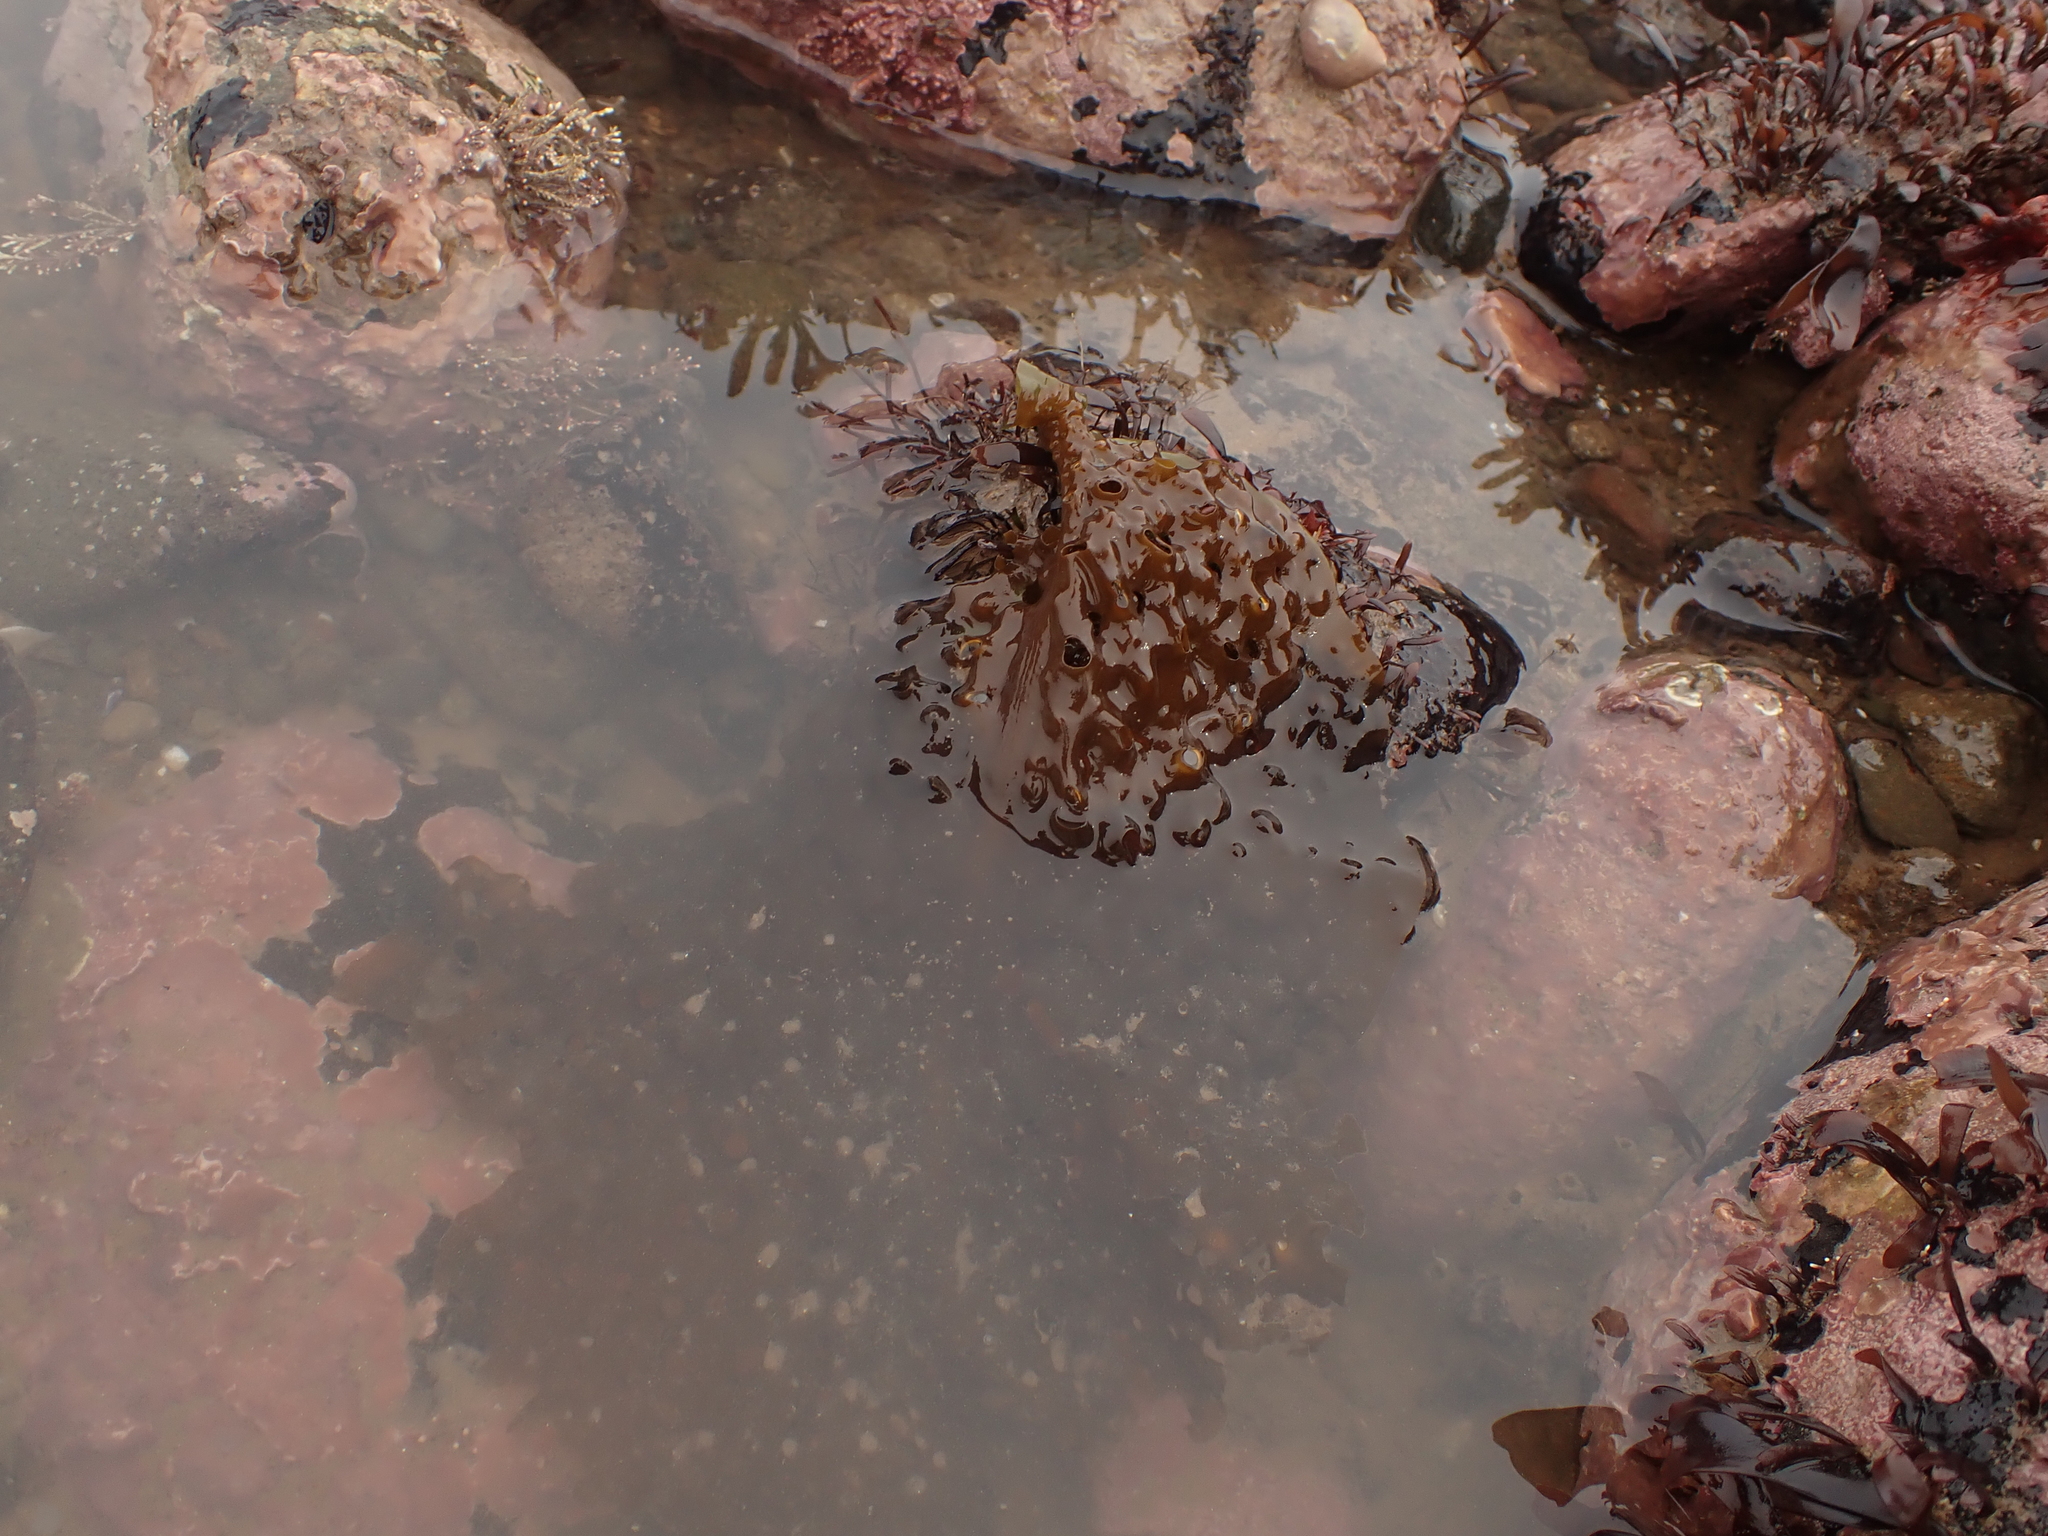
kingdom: Chromista
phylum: Ochrophyta
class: Phaeophyceae
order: Laminariales
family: Costariaceae
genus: Agarum
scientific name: Agarum clathratum
